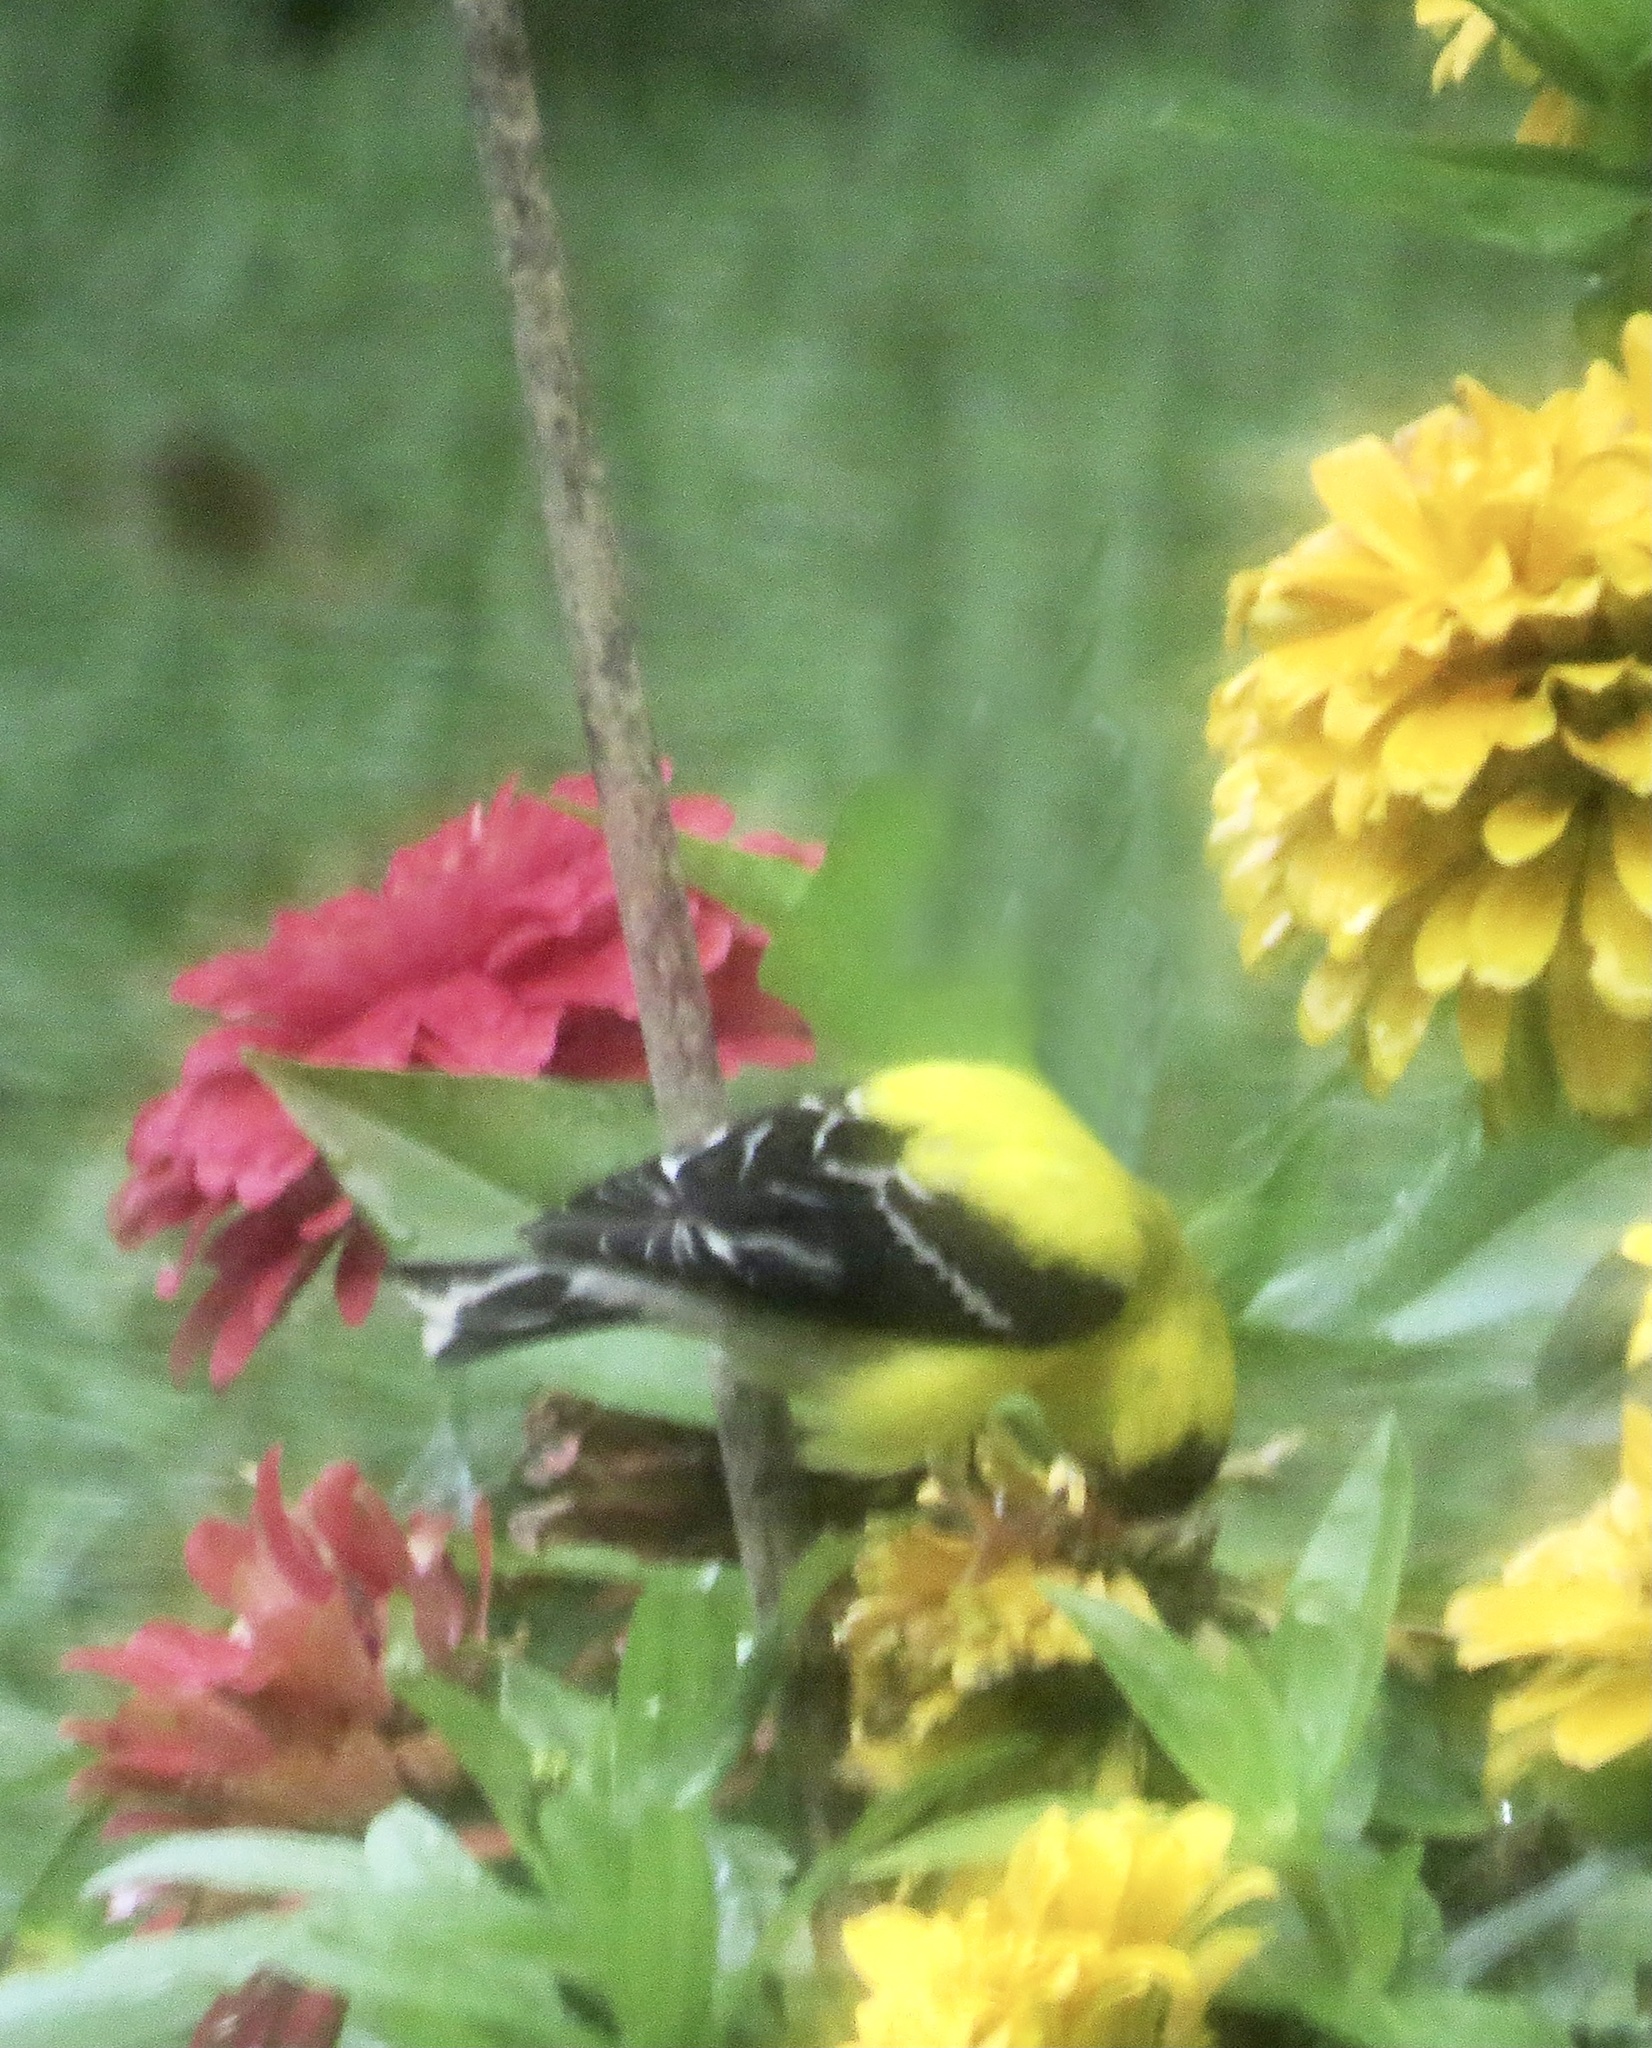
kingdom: Animalia
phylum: Chordata
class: Aves
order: Passeriformes
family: Fringillidae
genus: Spinus
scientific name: Spinus tristis
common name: American goldfinch
